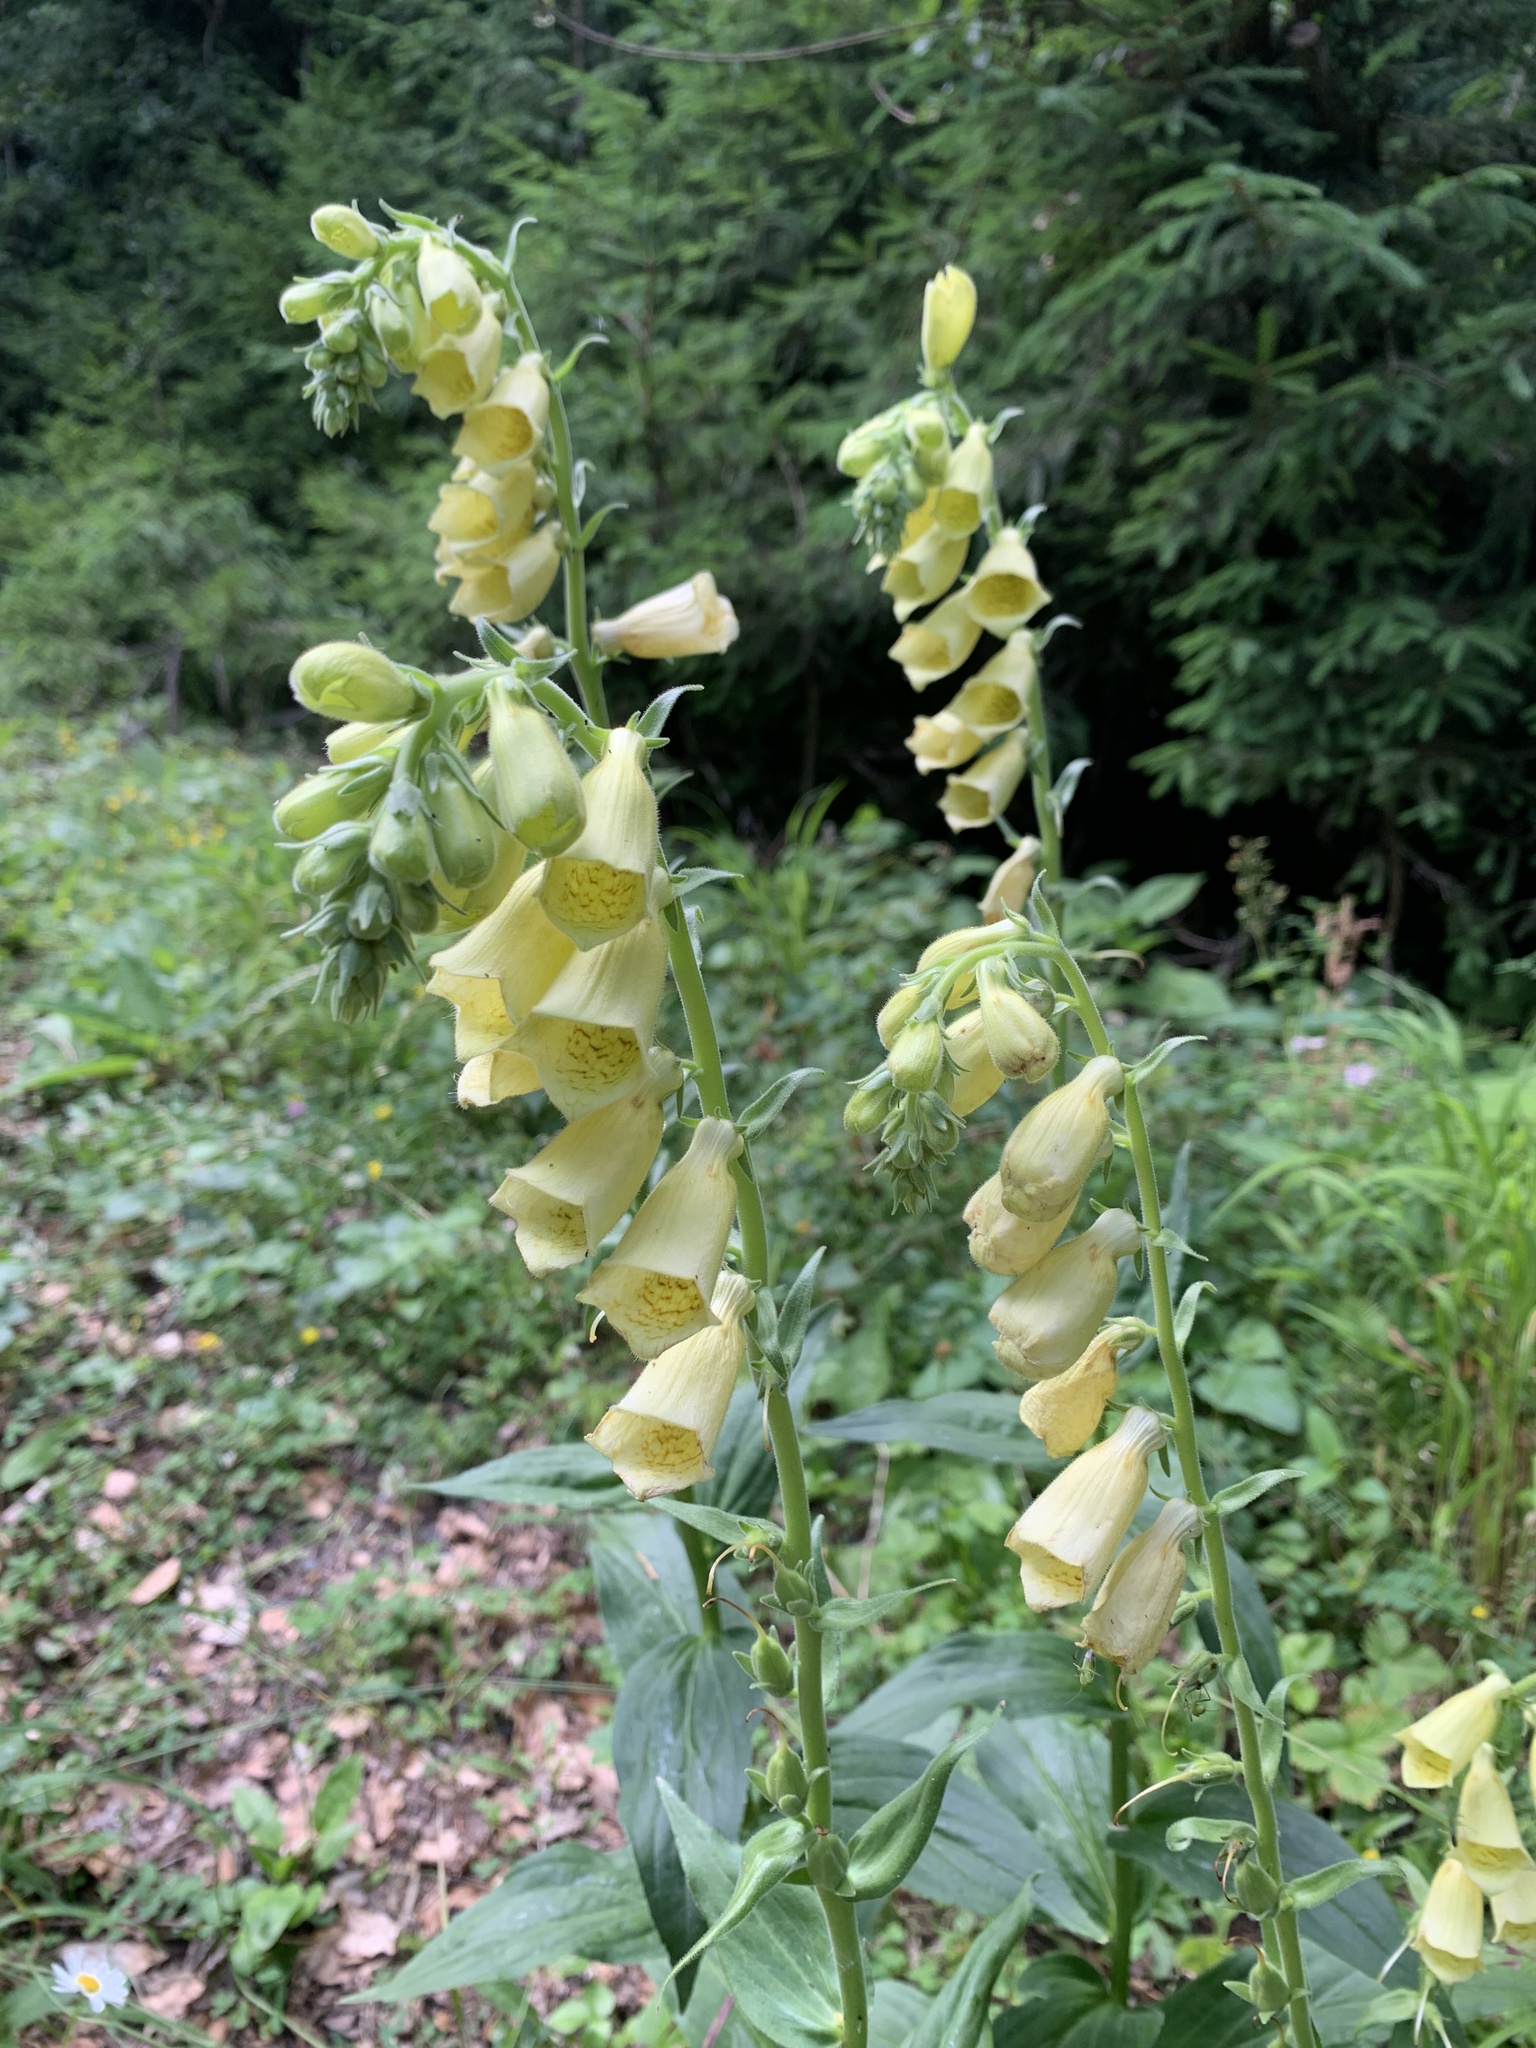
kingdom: Plantae
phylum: Tracheophyta
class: Magnoliopsida
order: Lamiales
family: Plantaginaceae
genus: Digitalis
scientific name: Digitalis grandiflora
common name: Yellow foxglove
